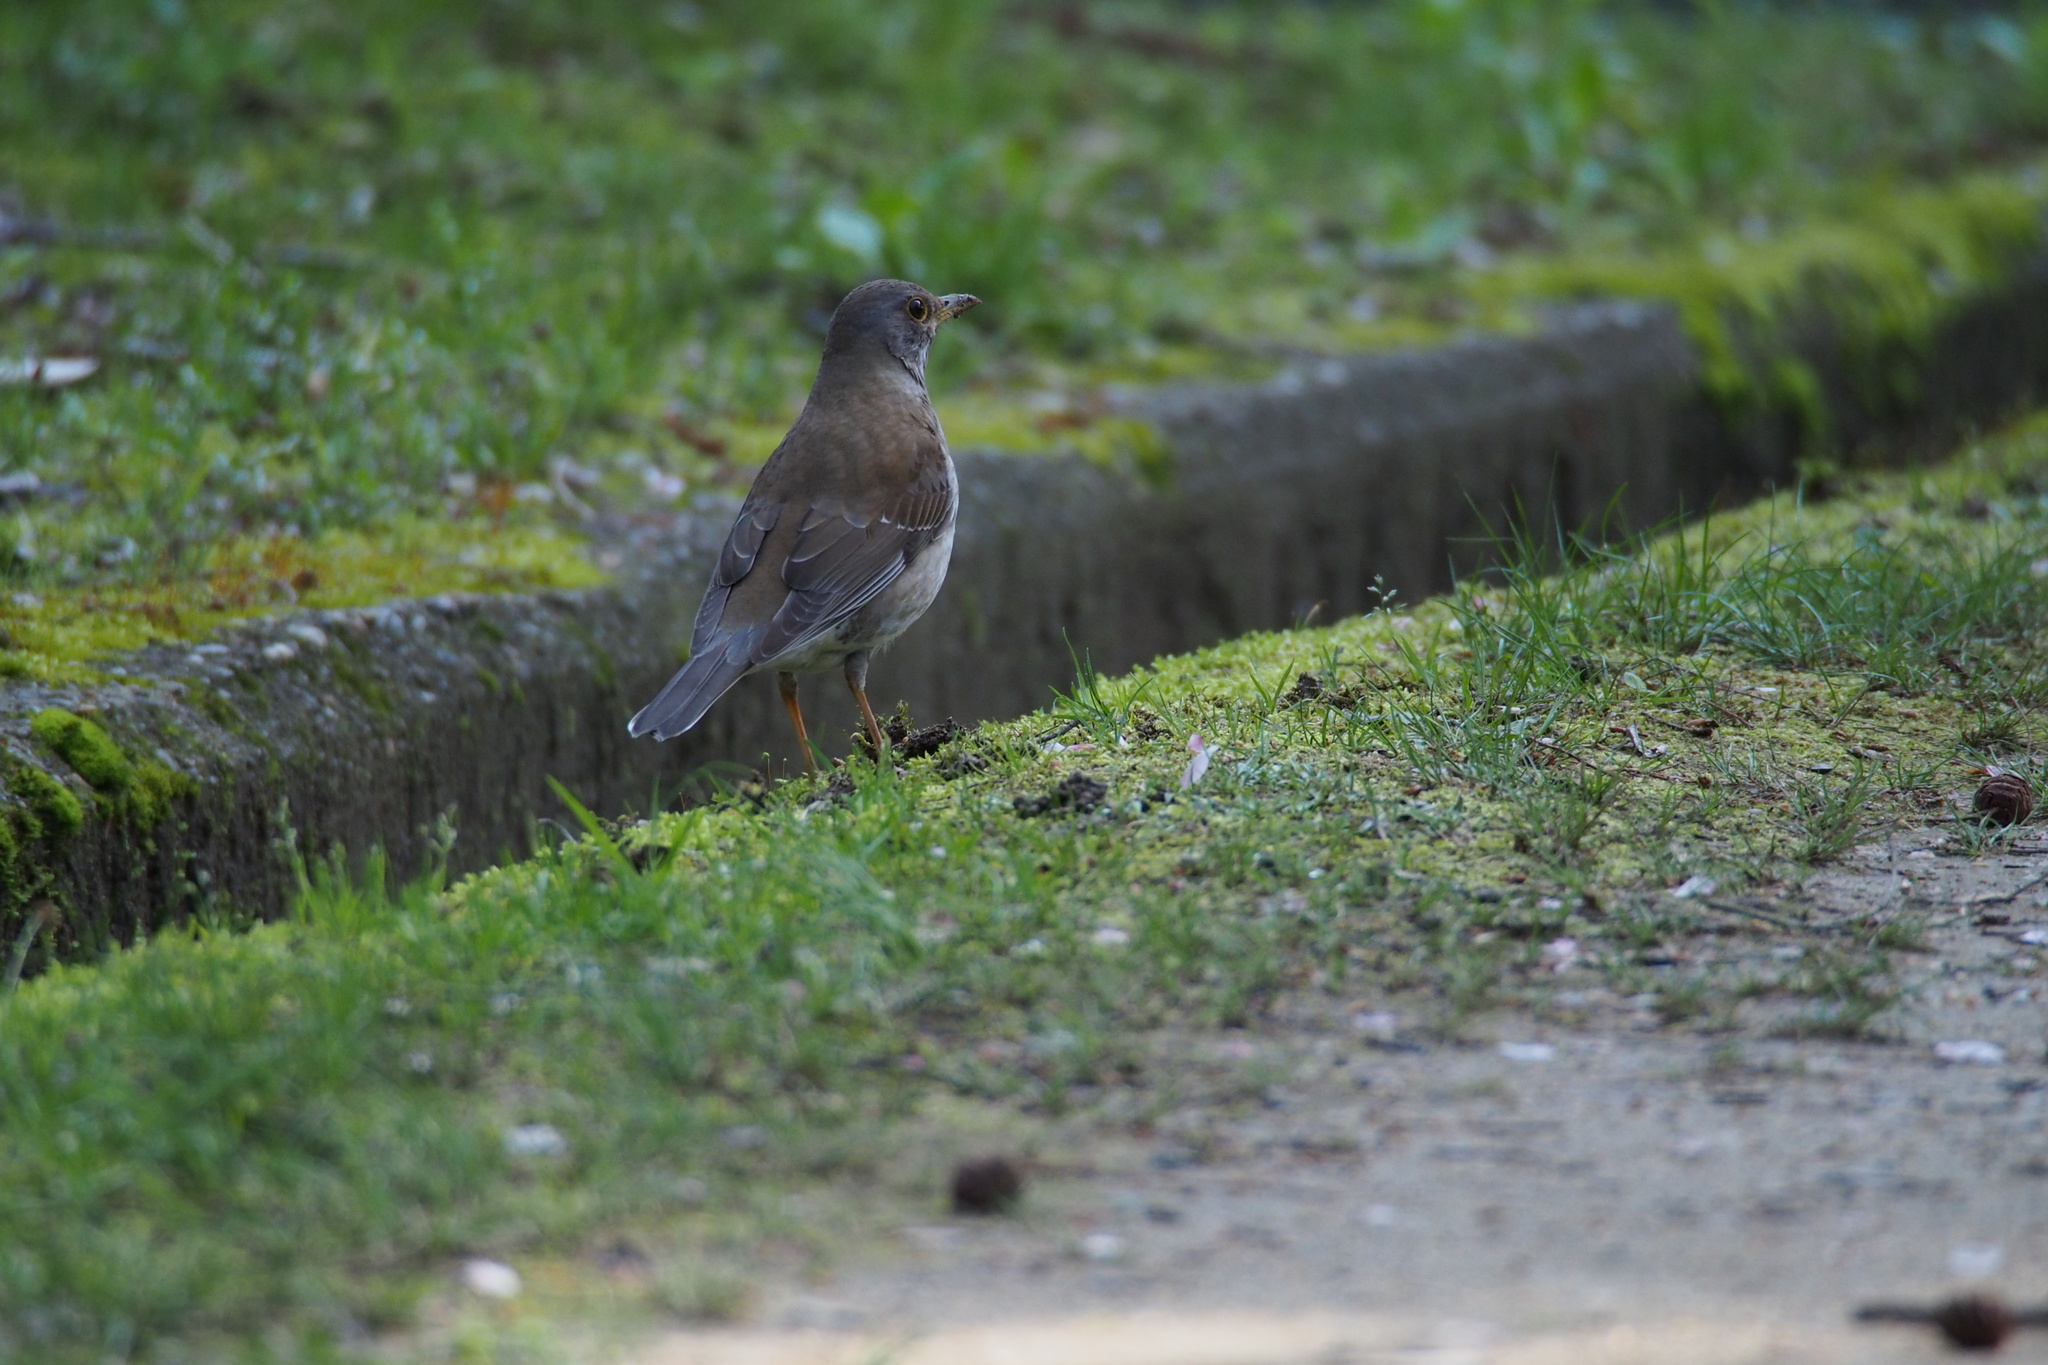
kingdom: Animalia
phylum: Chordata
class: Aves
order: Passeriformes
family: Turdidae
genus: Turdus
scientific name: Turdus pallidus
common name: Pale thrush
